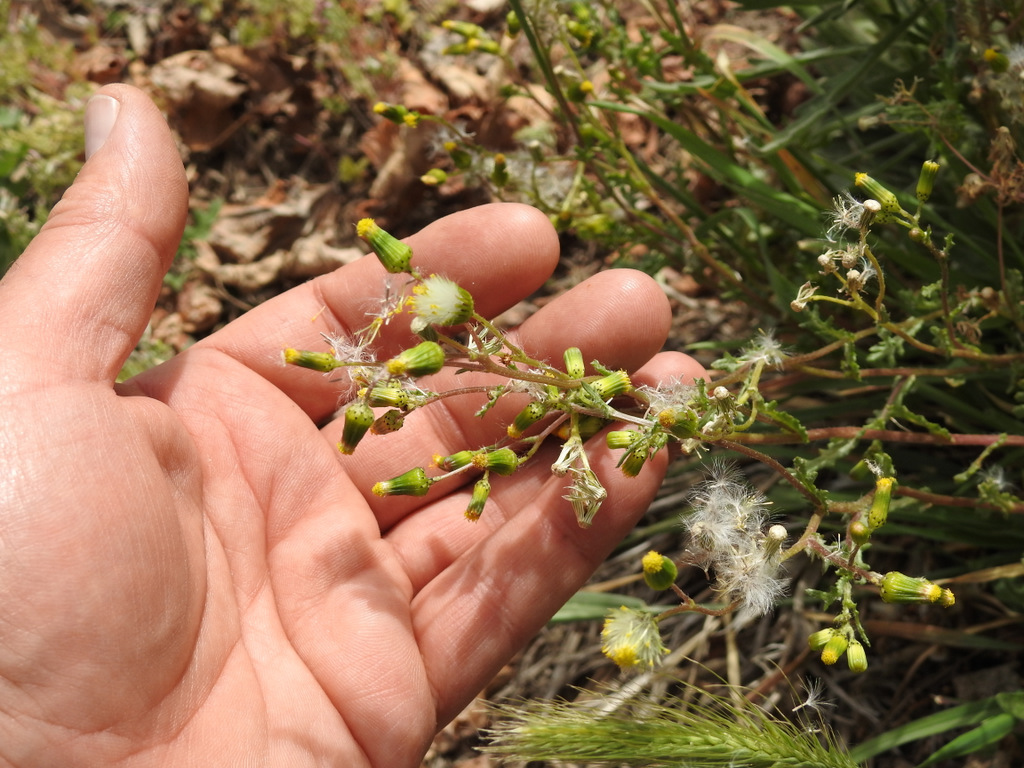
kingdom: Plantae
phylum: Tracheophyta
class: Magnoliopsida
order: Asterales
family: Asteraceae
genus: Senecio
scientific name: Senecio vulgaris
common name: Old-man-in-the-spring
